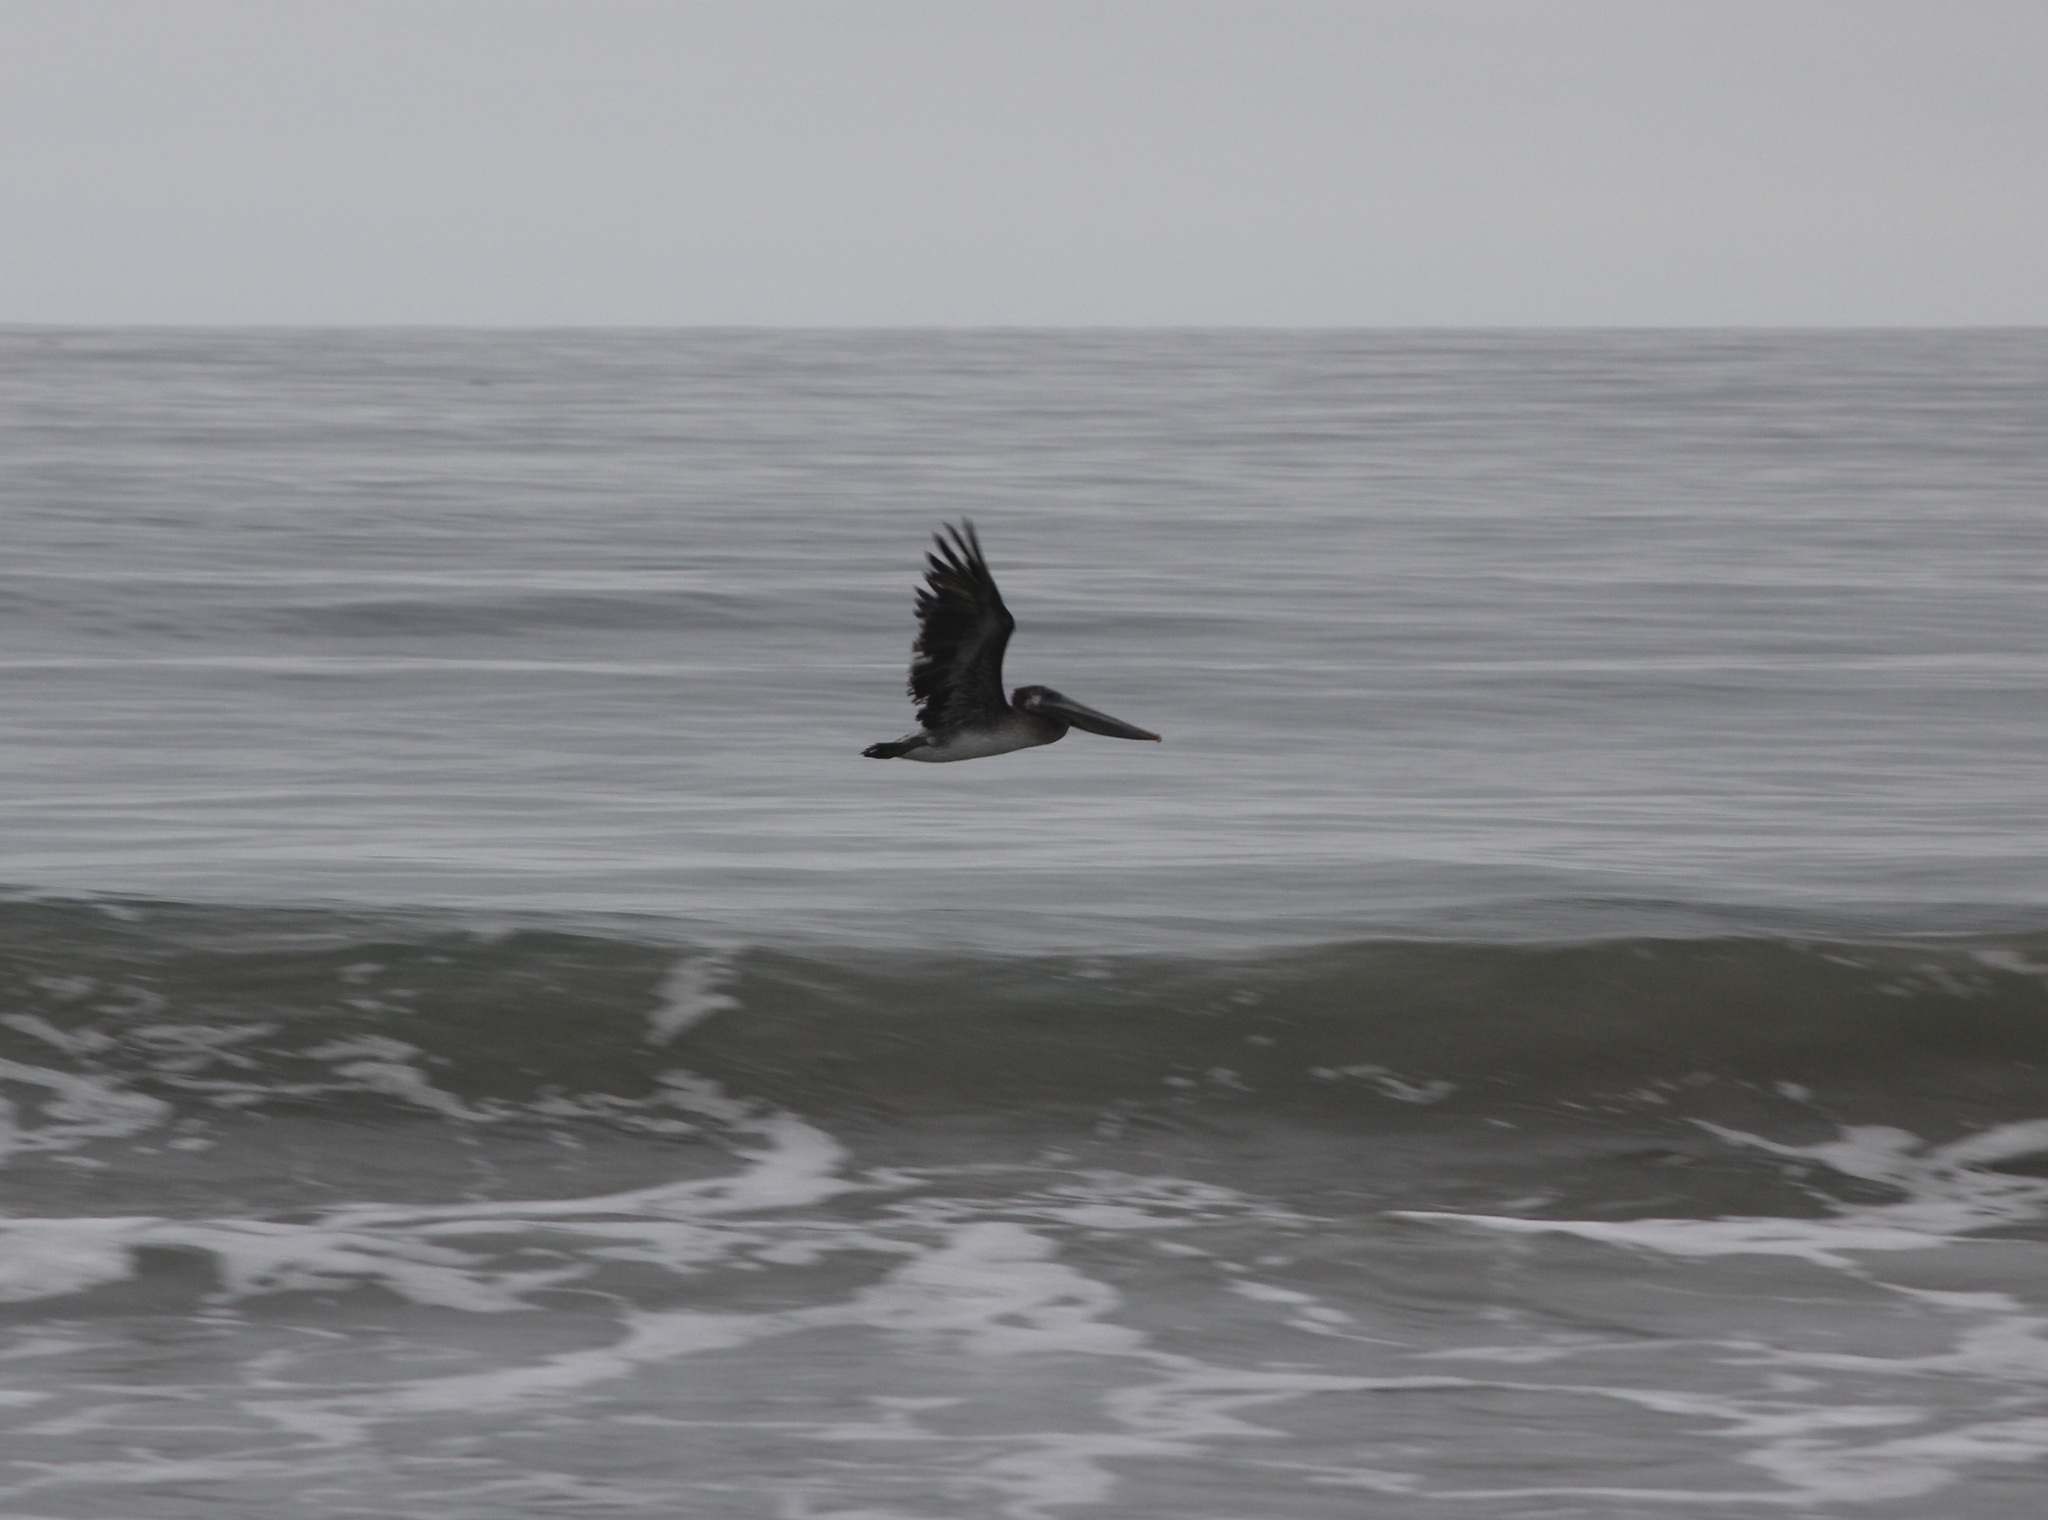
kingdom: Animalia
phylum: Chordata
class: Aves
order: Pelecaniformes
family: Pelecanidae
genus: Pelecanus
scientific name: Pelecanus occidentalis
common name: Brown pelican
